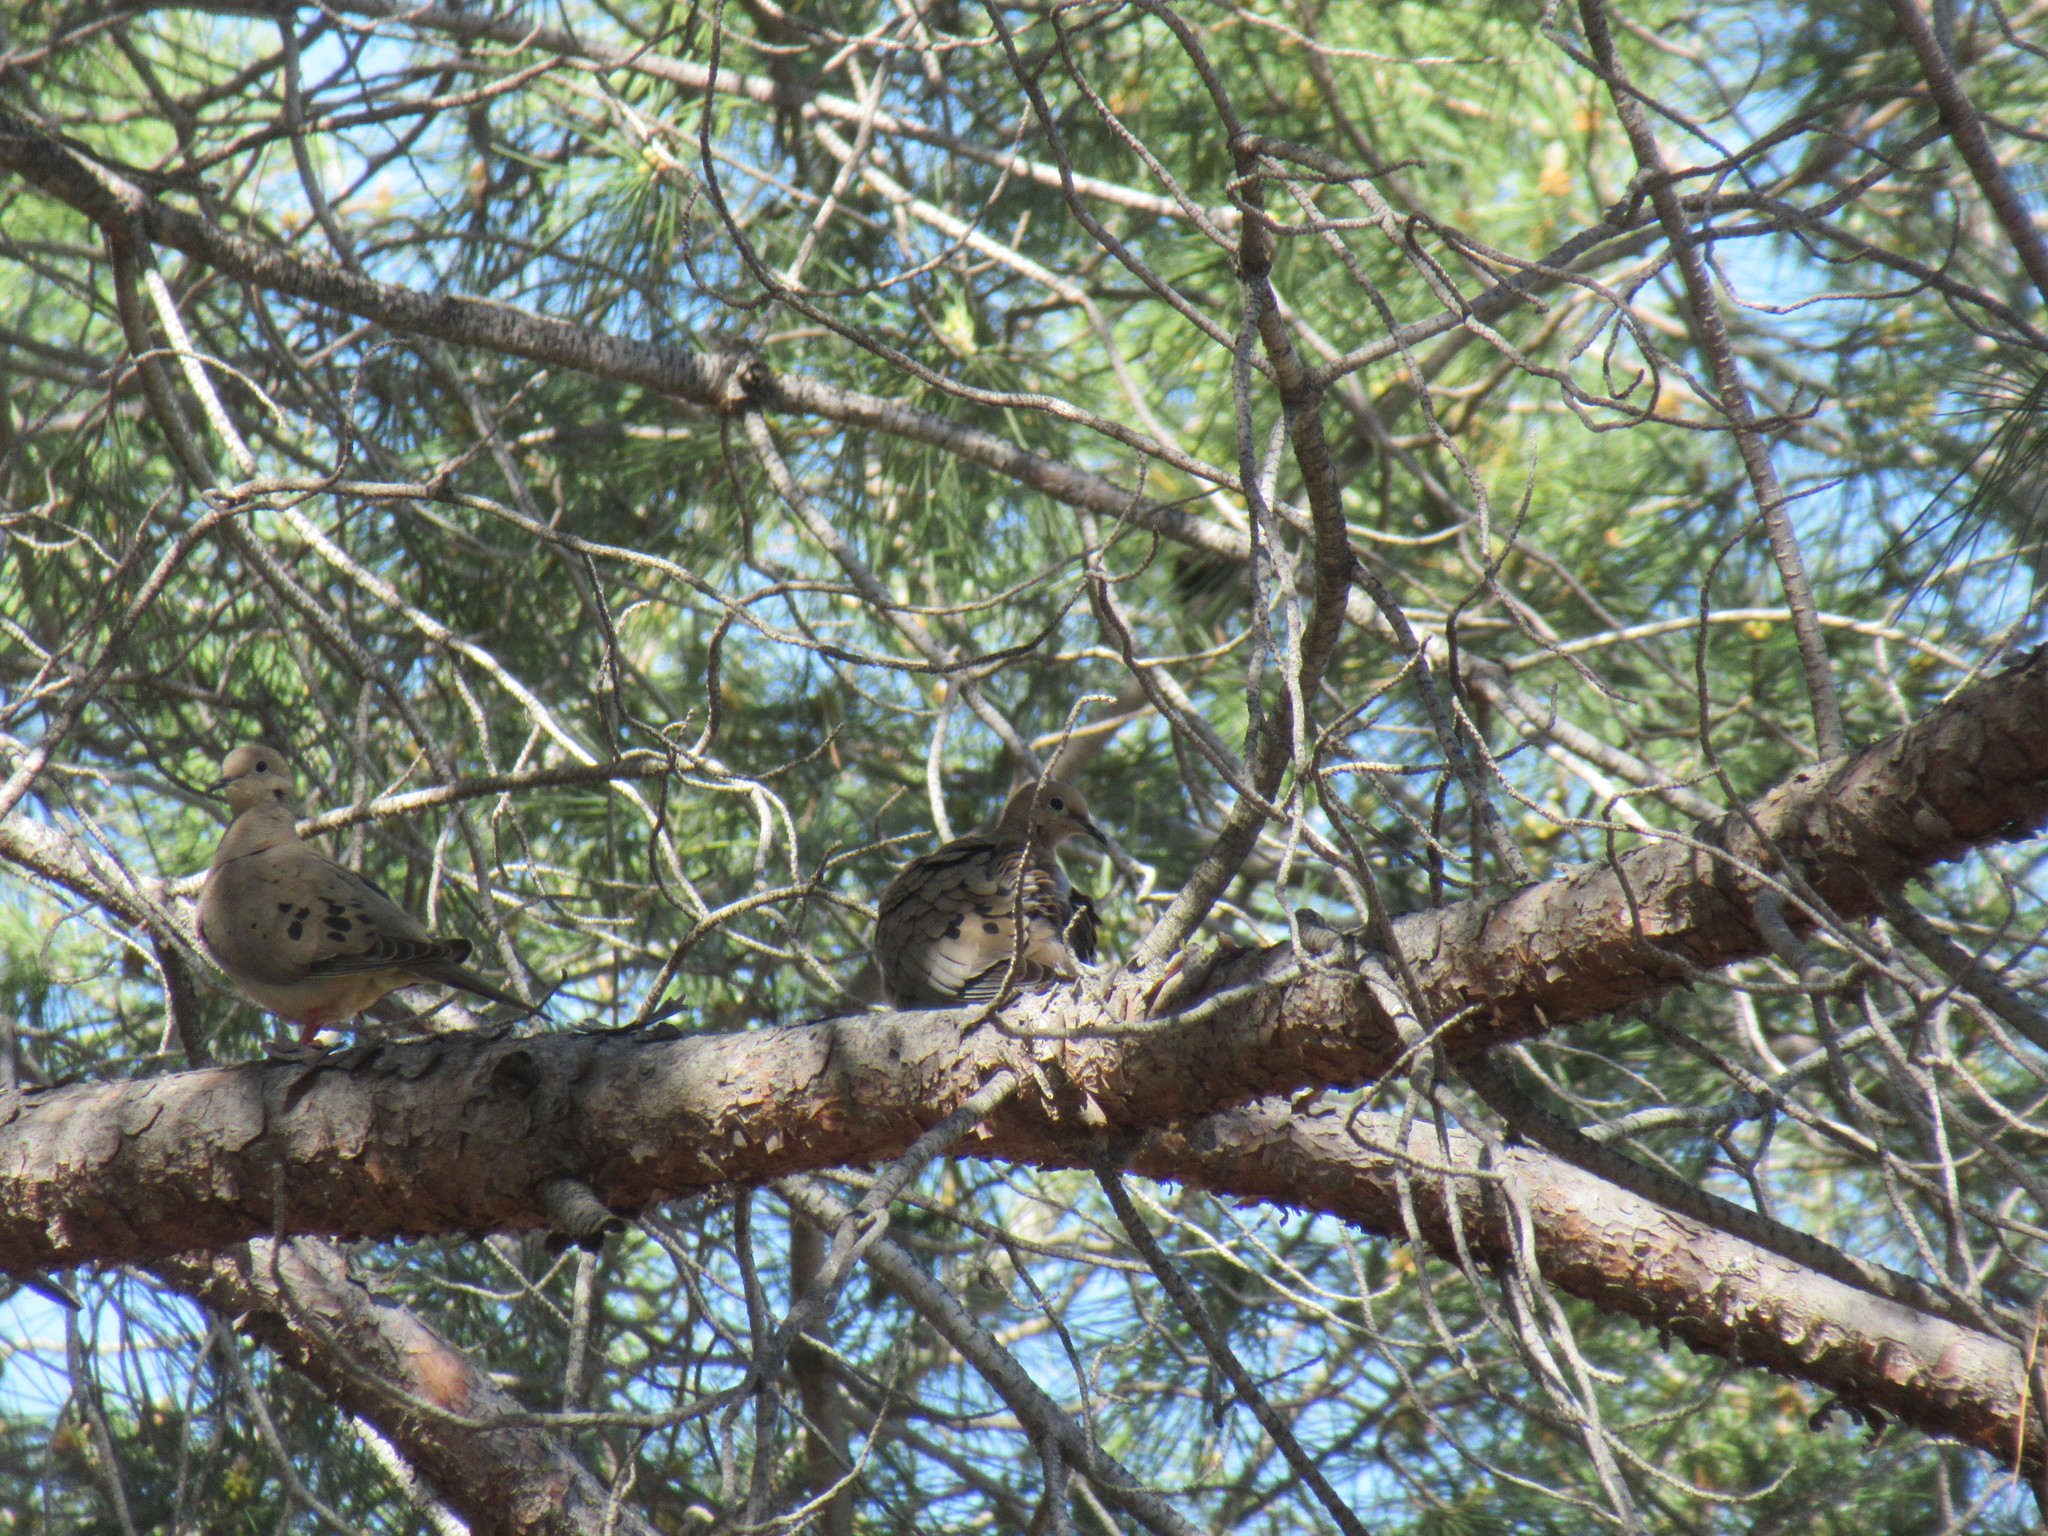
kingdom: Animalia
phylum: Chordata
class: Aves
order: Columbiformes
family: Columbidae
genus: Zenaida
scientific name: Zenaida macroura
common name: Mourning dove
